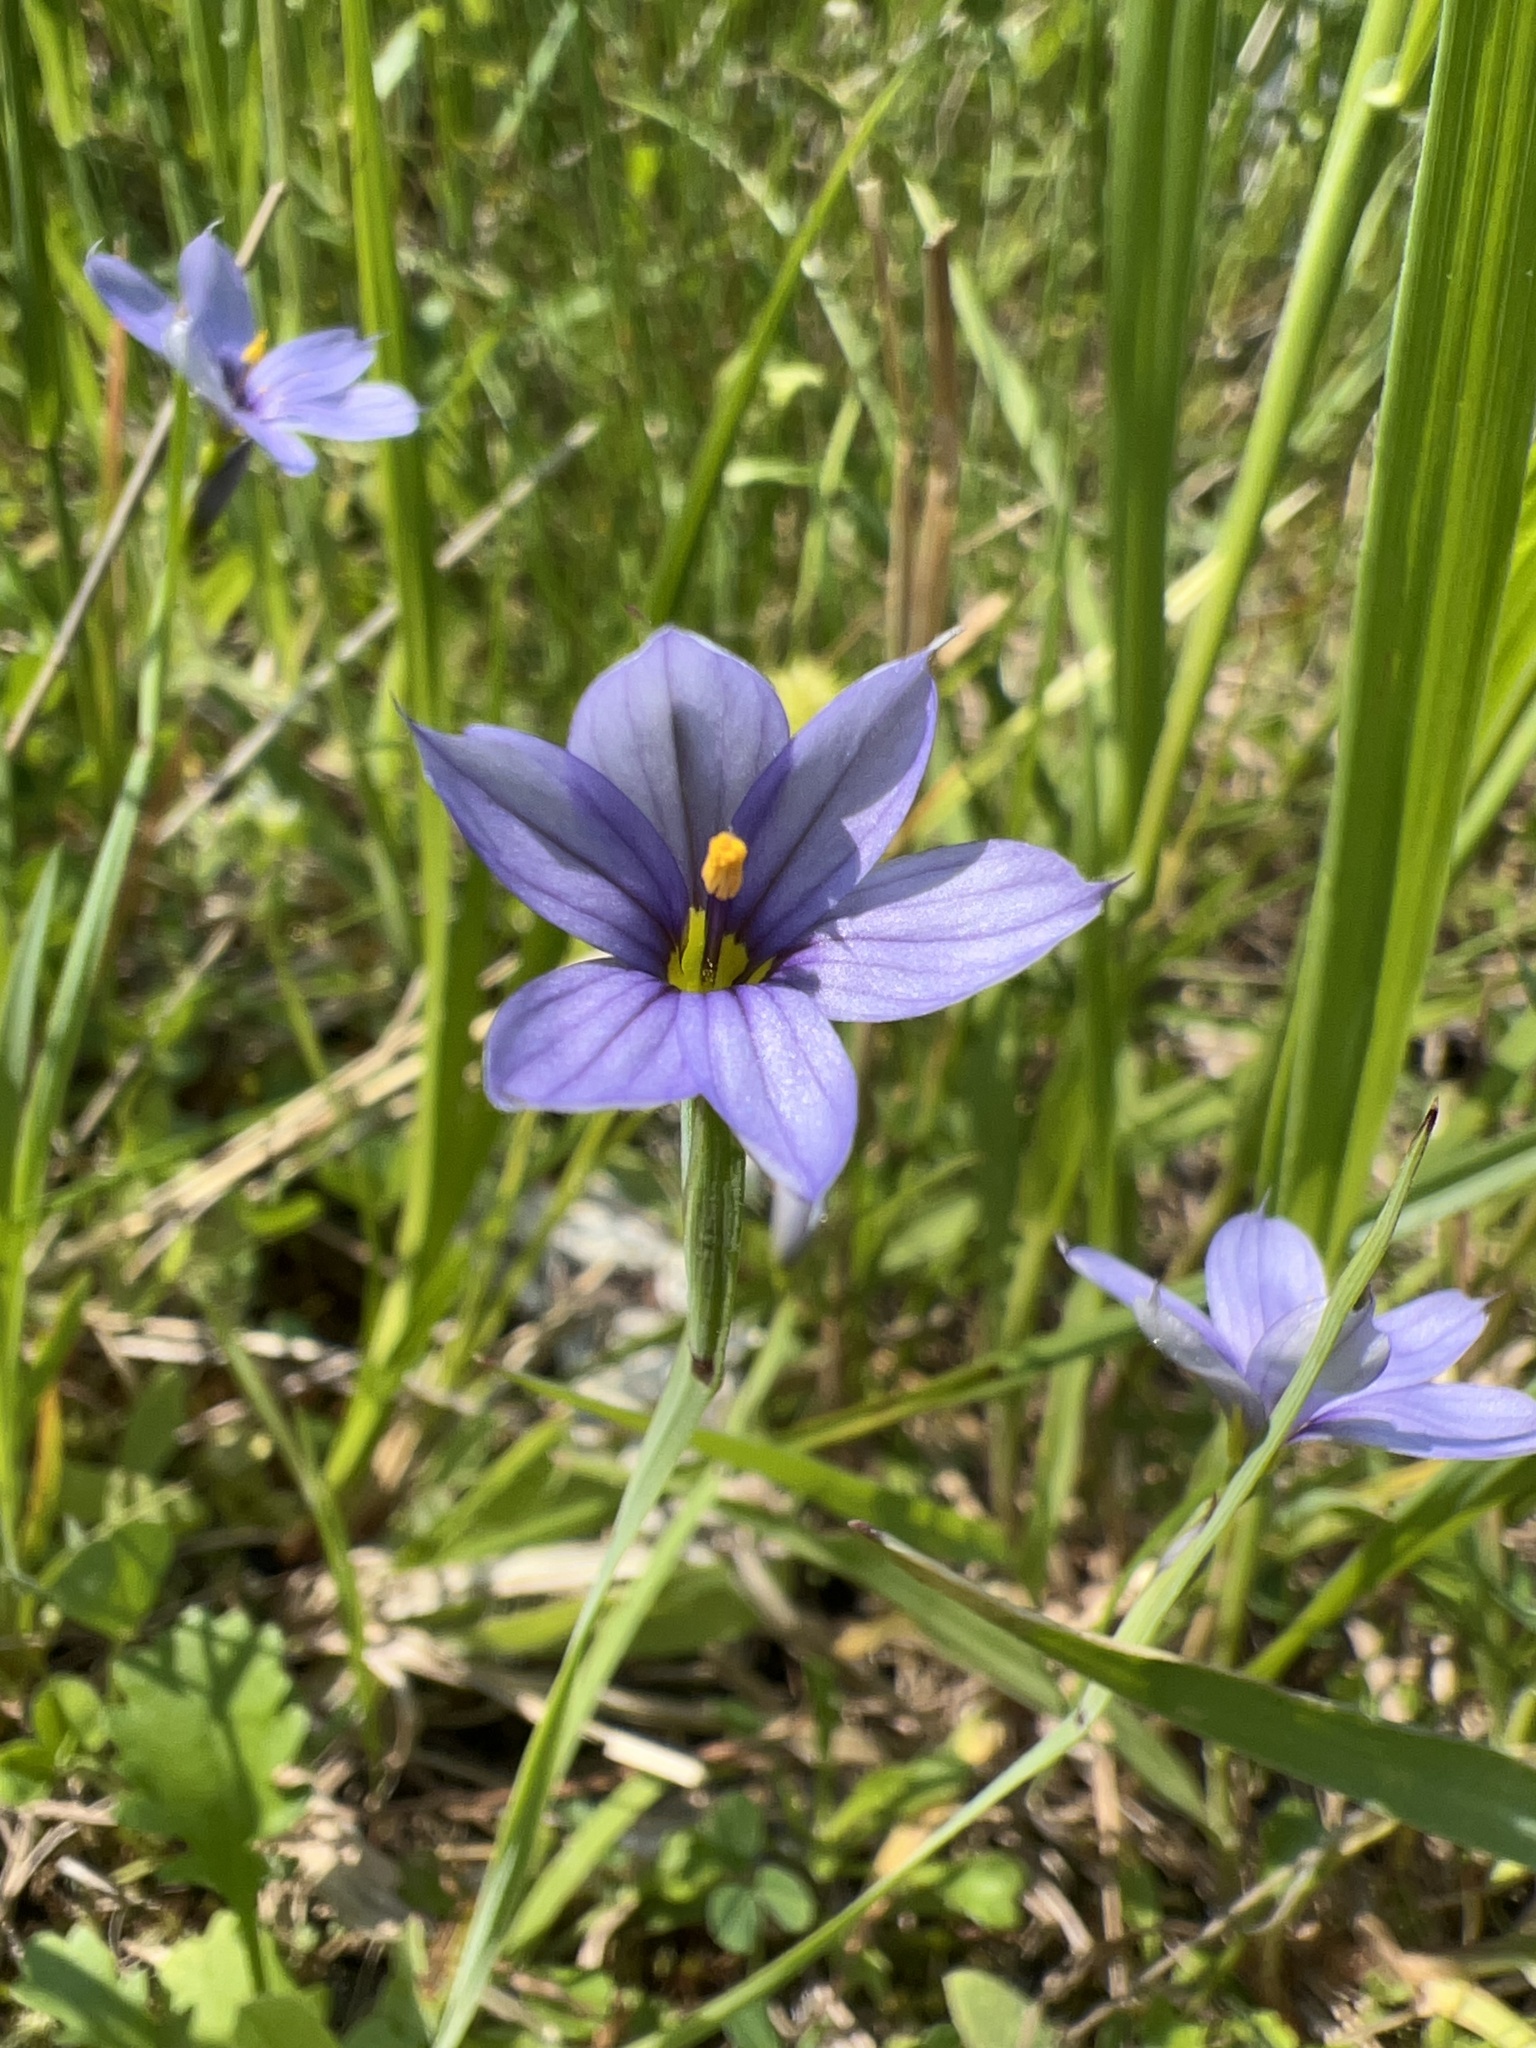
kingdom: Plantae
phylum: Tracheophyta
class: Liliopsida
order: Asparagales
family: Iridaceae
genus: Sisyrinchium
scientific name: Sisyrinchium montanum
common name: American blue-eyed-grass
